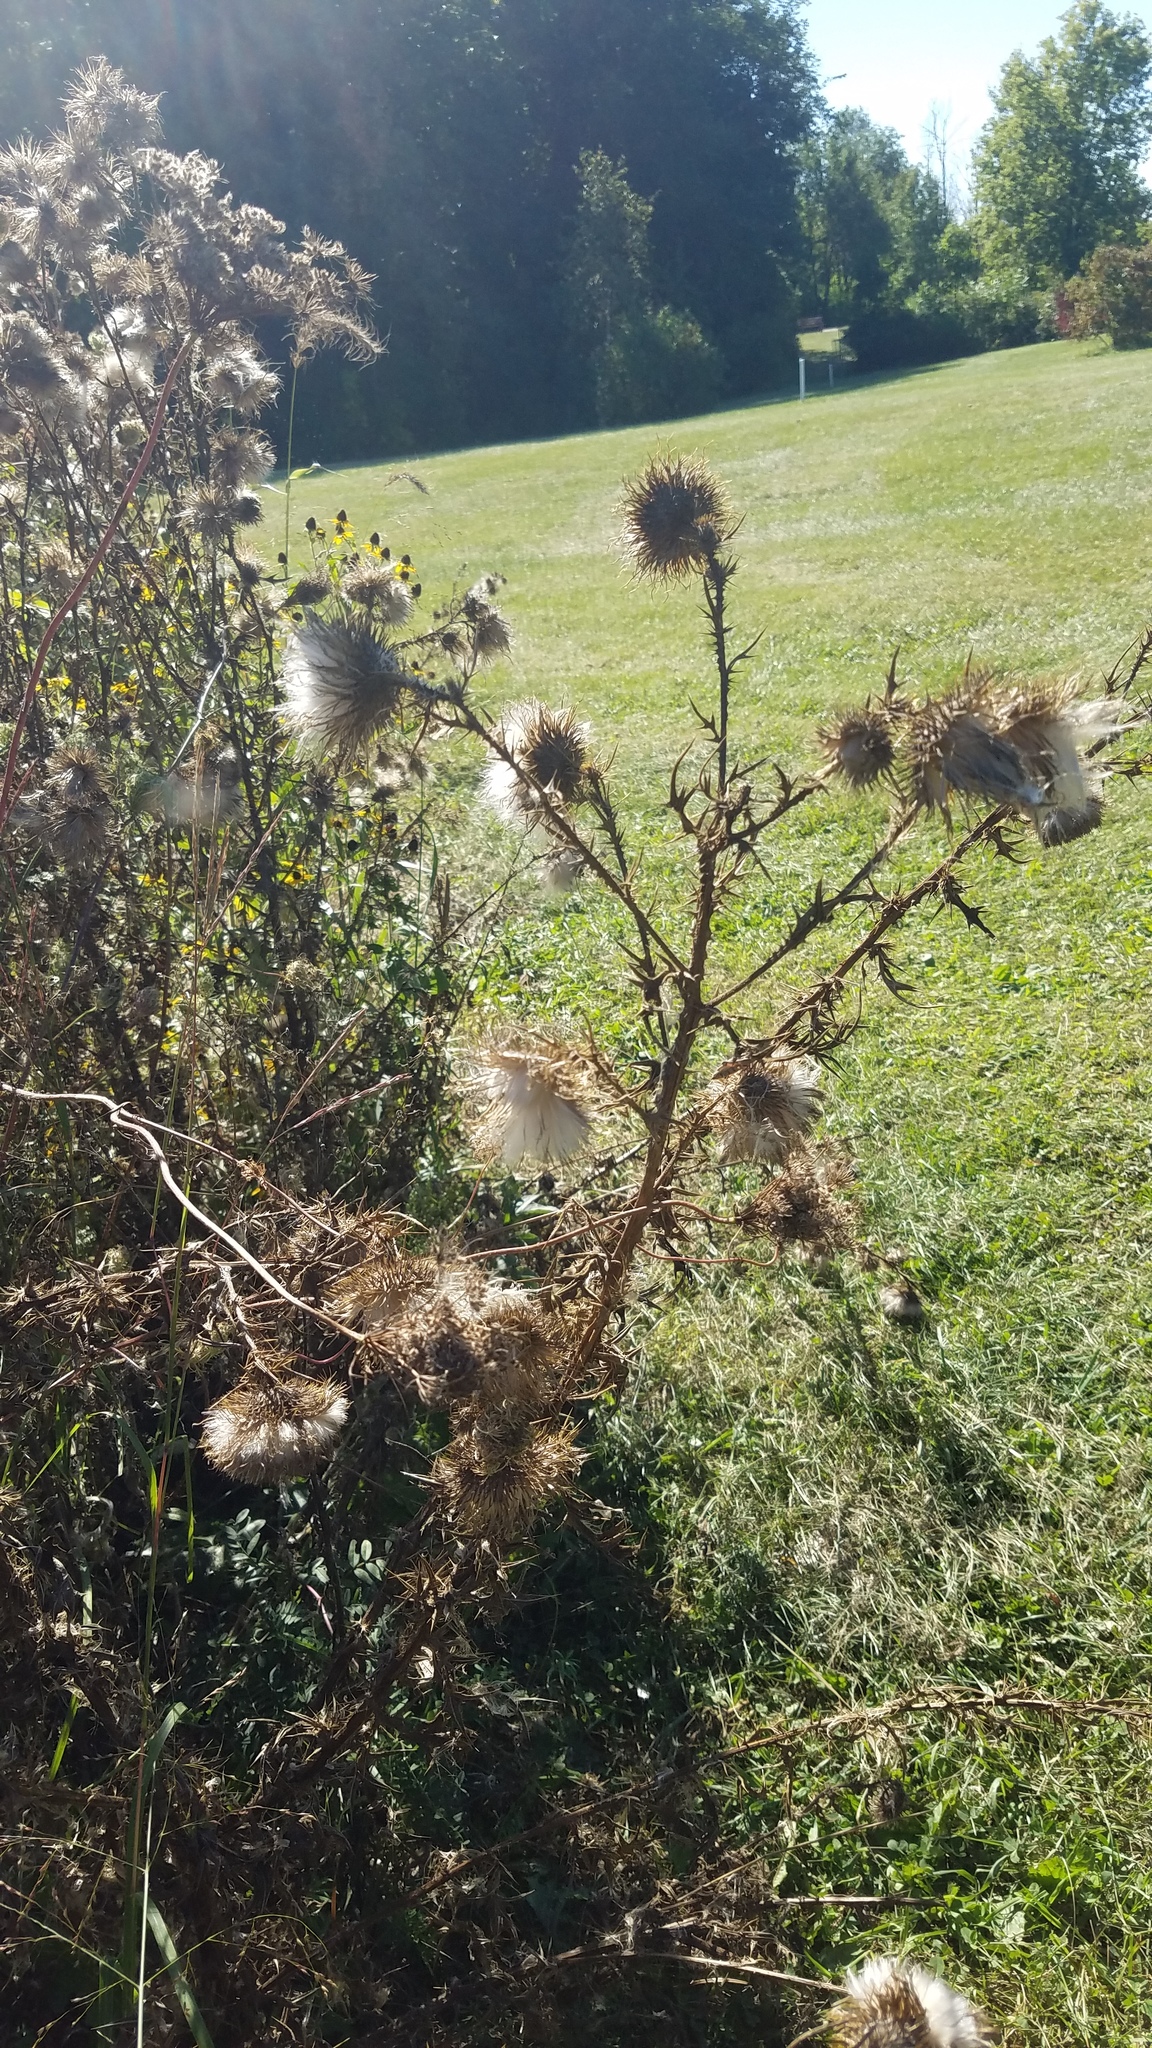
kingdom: Plantae
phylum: Tracheophyta
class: Magnoliopsida
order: Asterales
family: Asteraceae
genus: Cirsium
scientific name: Cirsium vulgare
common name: Bull thistle
